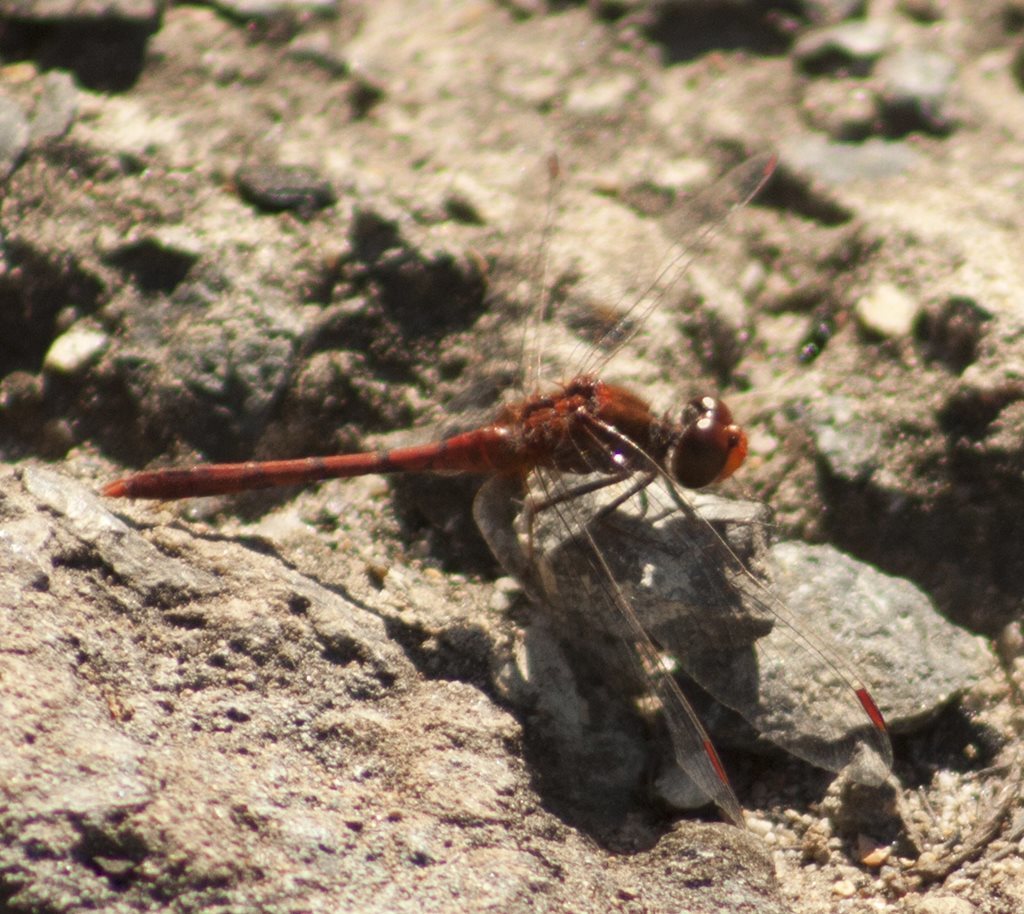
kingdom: Animalia
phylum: Arthropoda
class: Insecta
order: Odonata
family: Libellulidae
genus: Diplacodes
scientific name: Diplacodes bipunctata
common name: Red percher dragonfly
